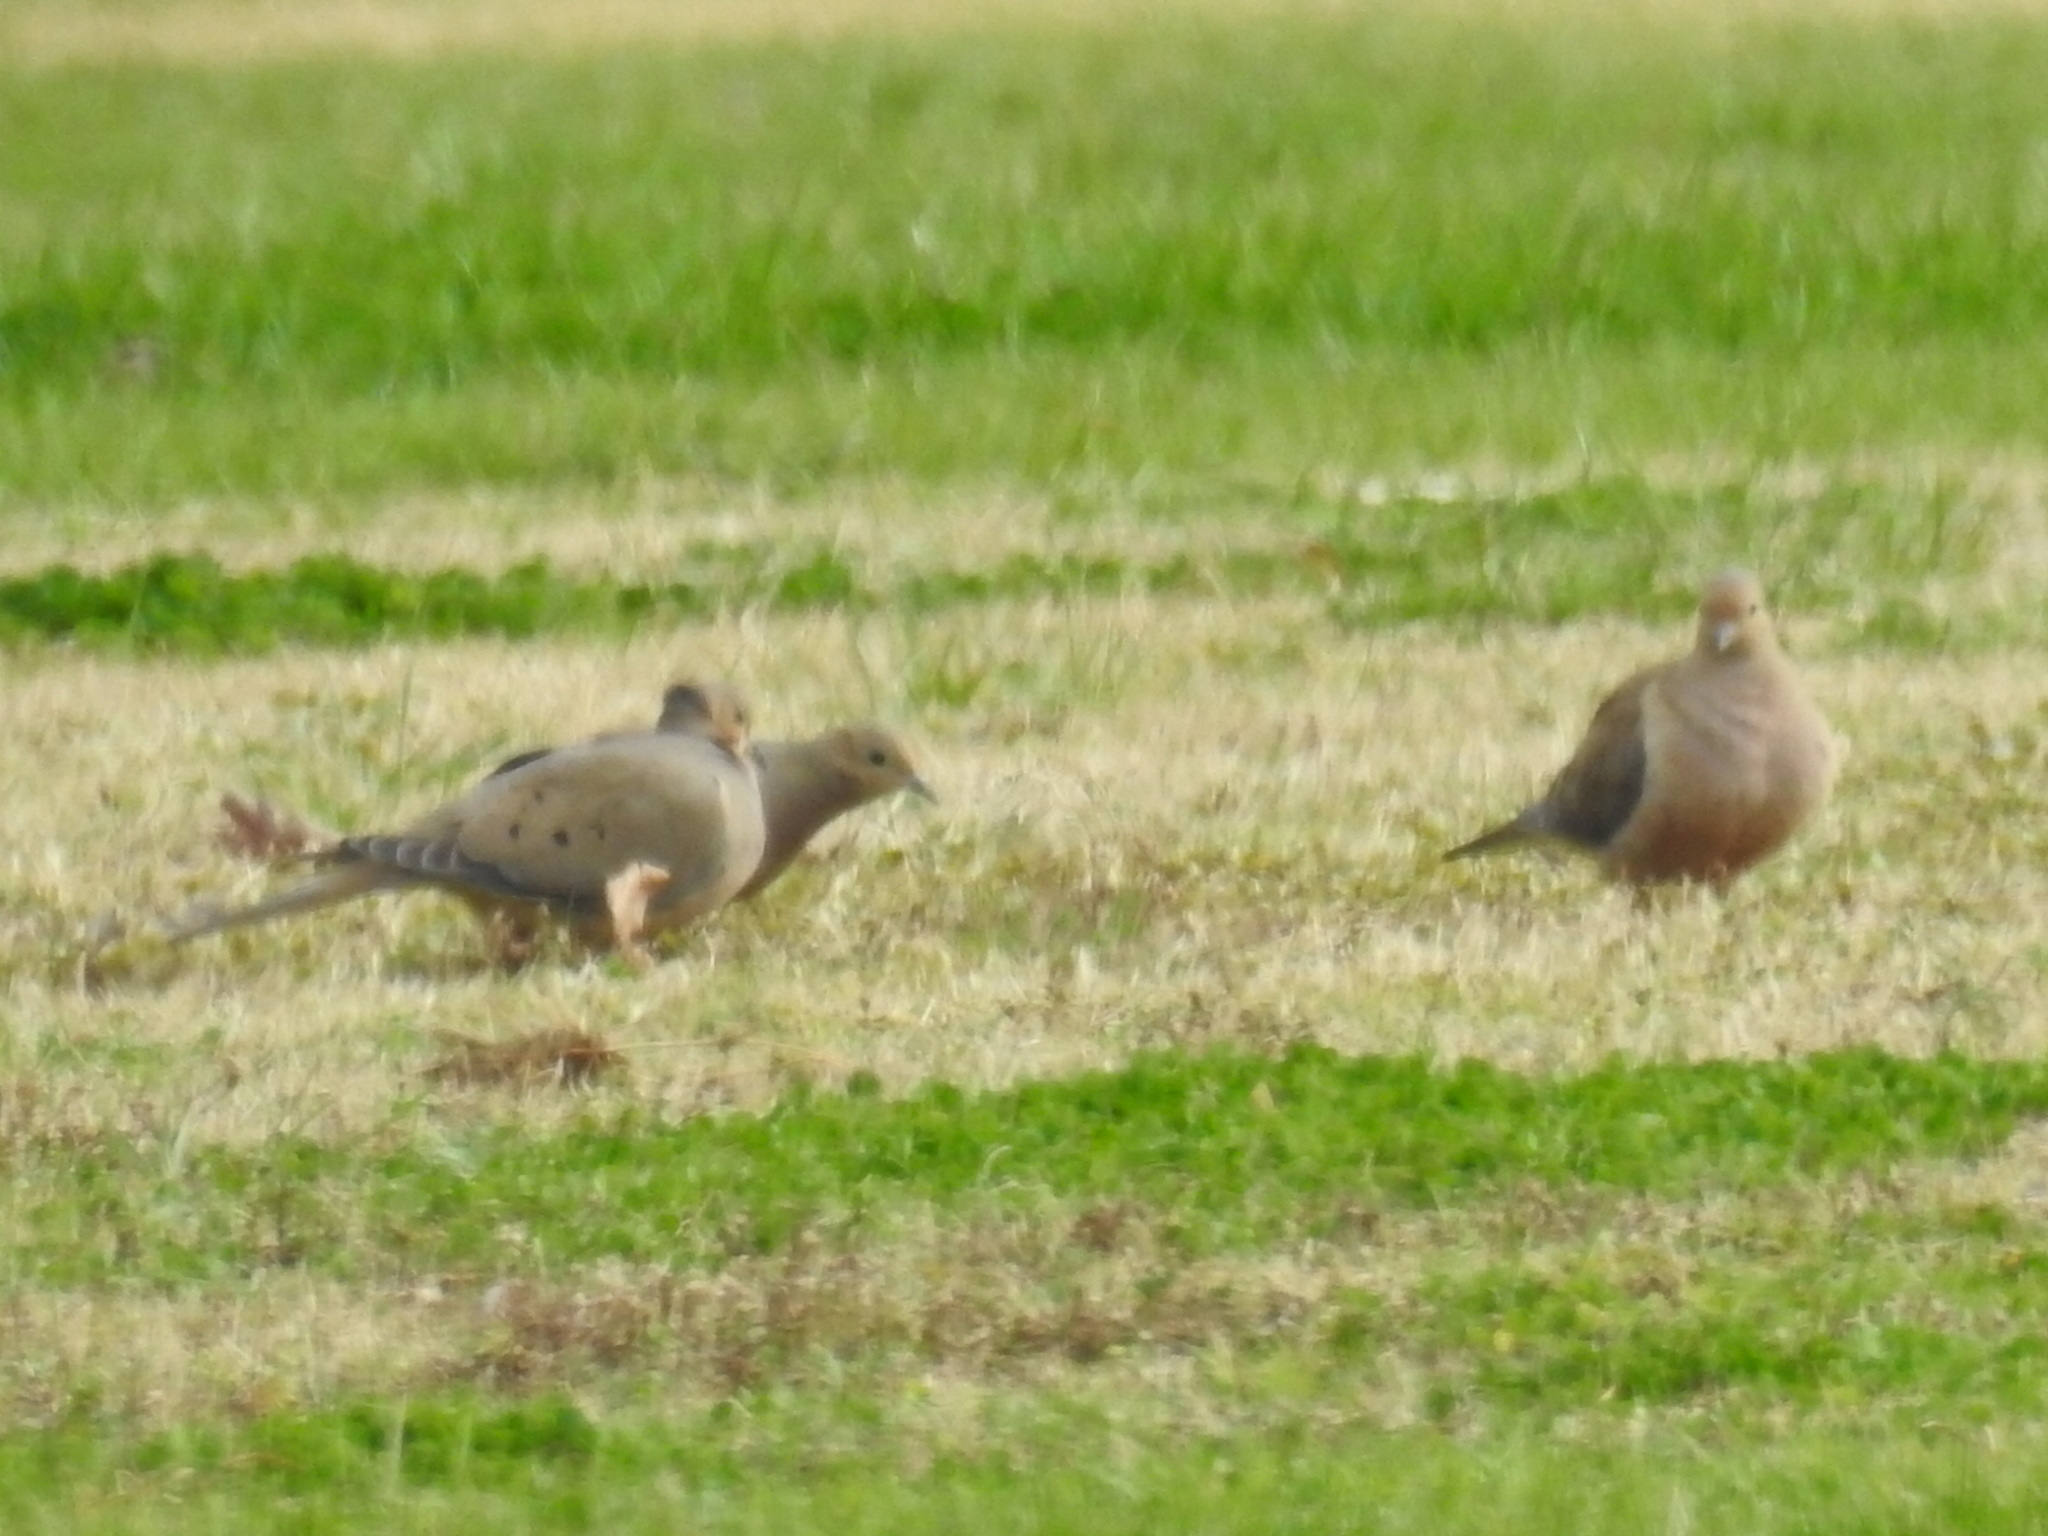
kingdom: Animalia
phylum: Chordata
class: Aves
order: Columbiformes
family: Columbidae
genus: Zenaida
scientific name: Zenaida macroura
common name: Mourning dove
